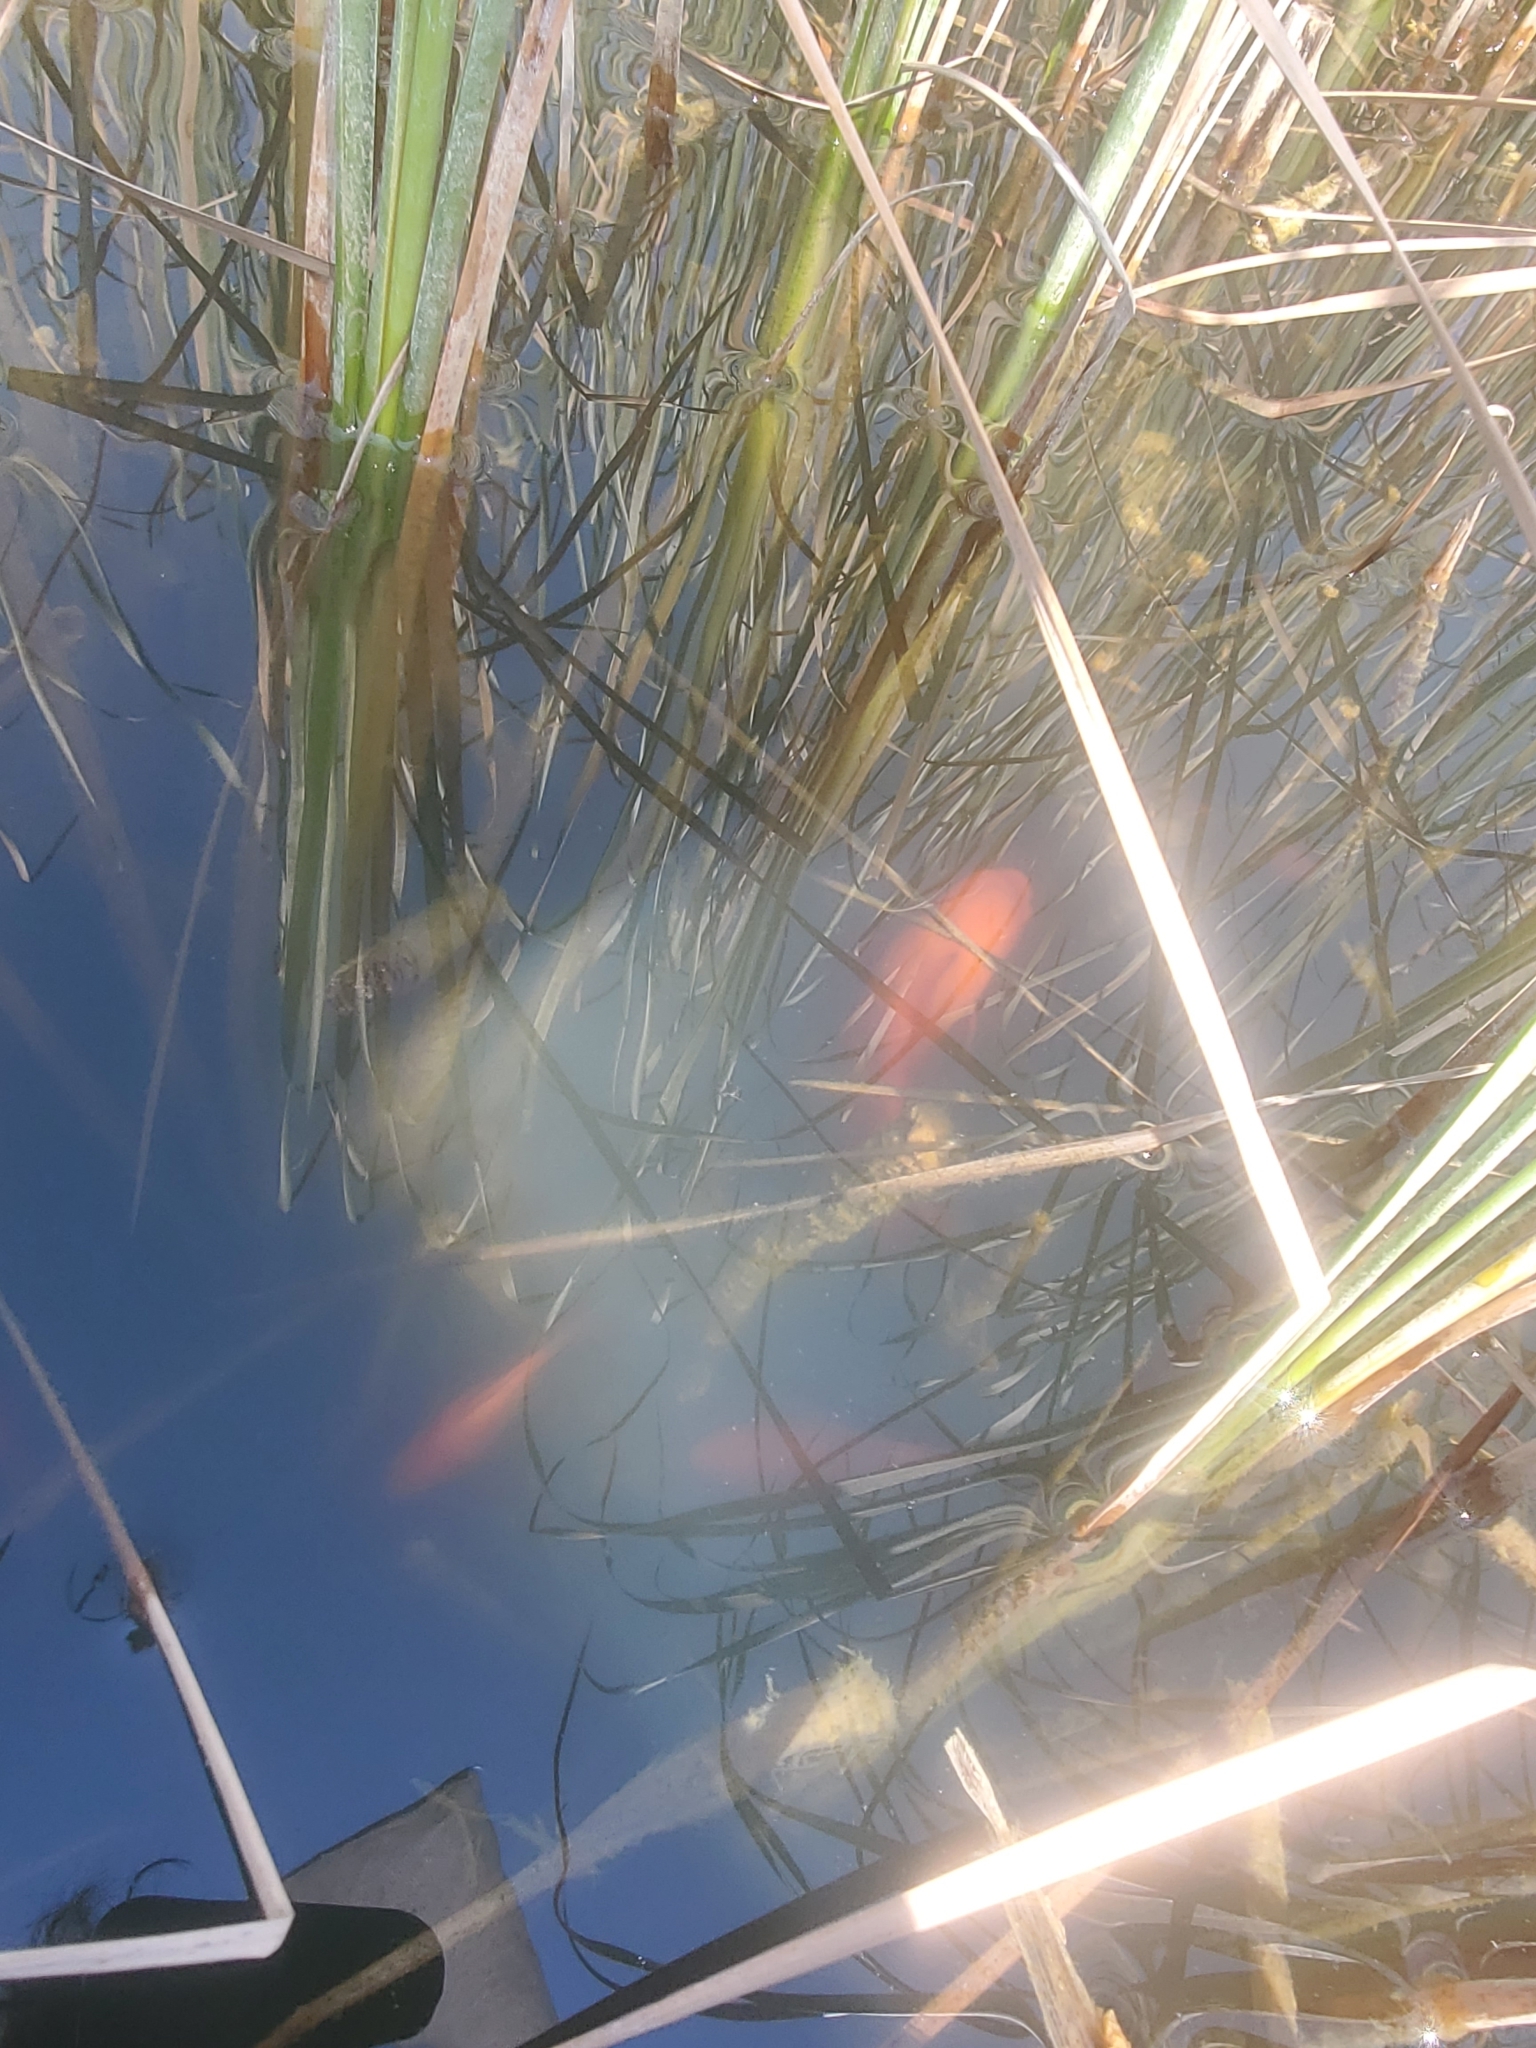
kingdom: Animalia
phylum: Chordata
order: Cypriniformes
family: Cyprinidae
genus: Carassius
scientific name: Carassius auratus
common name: Goldfish
